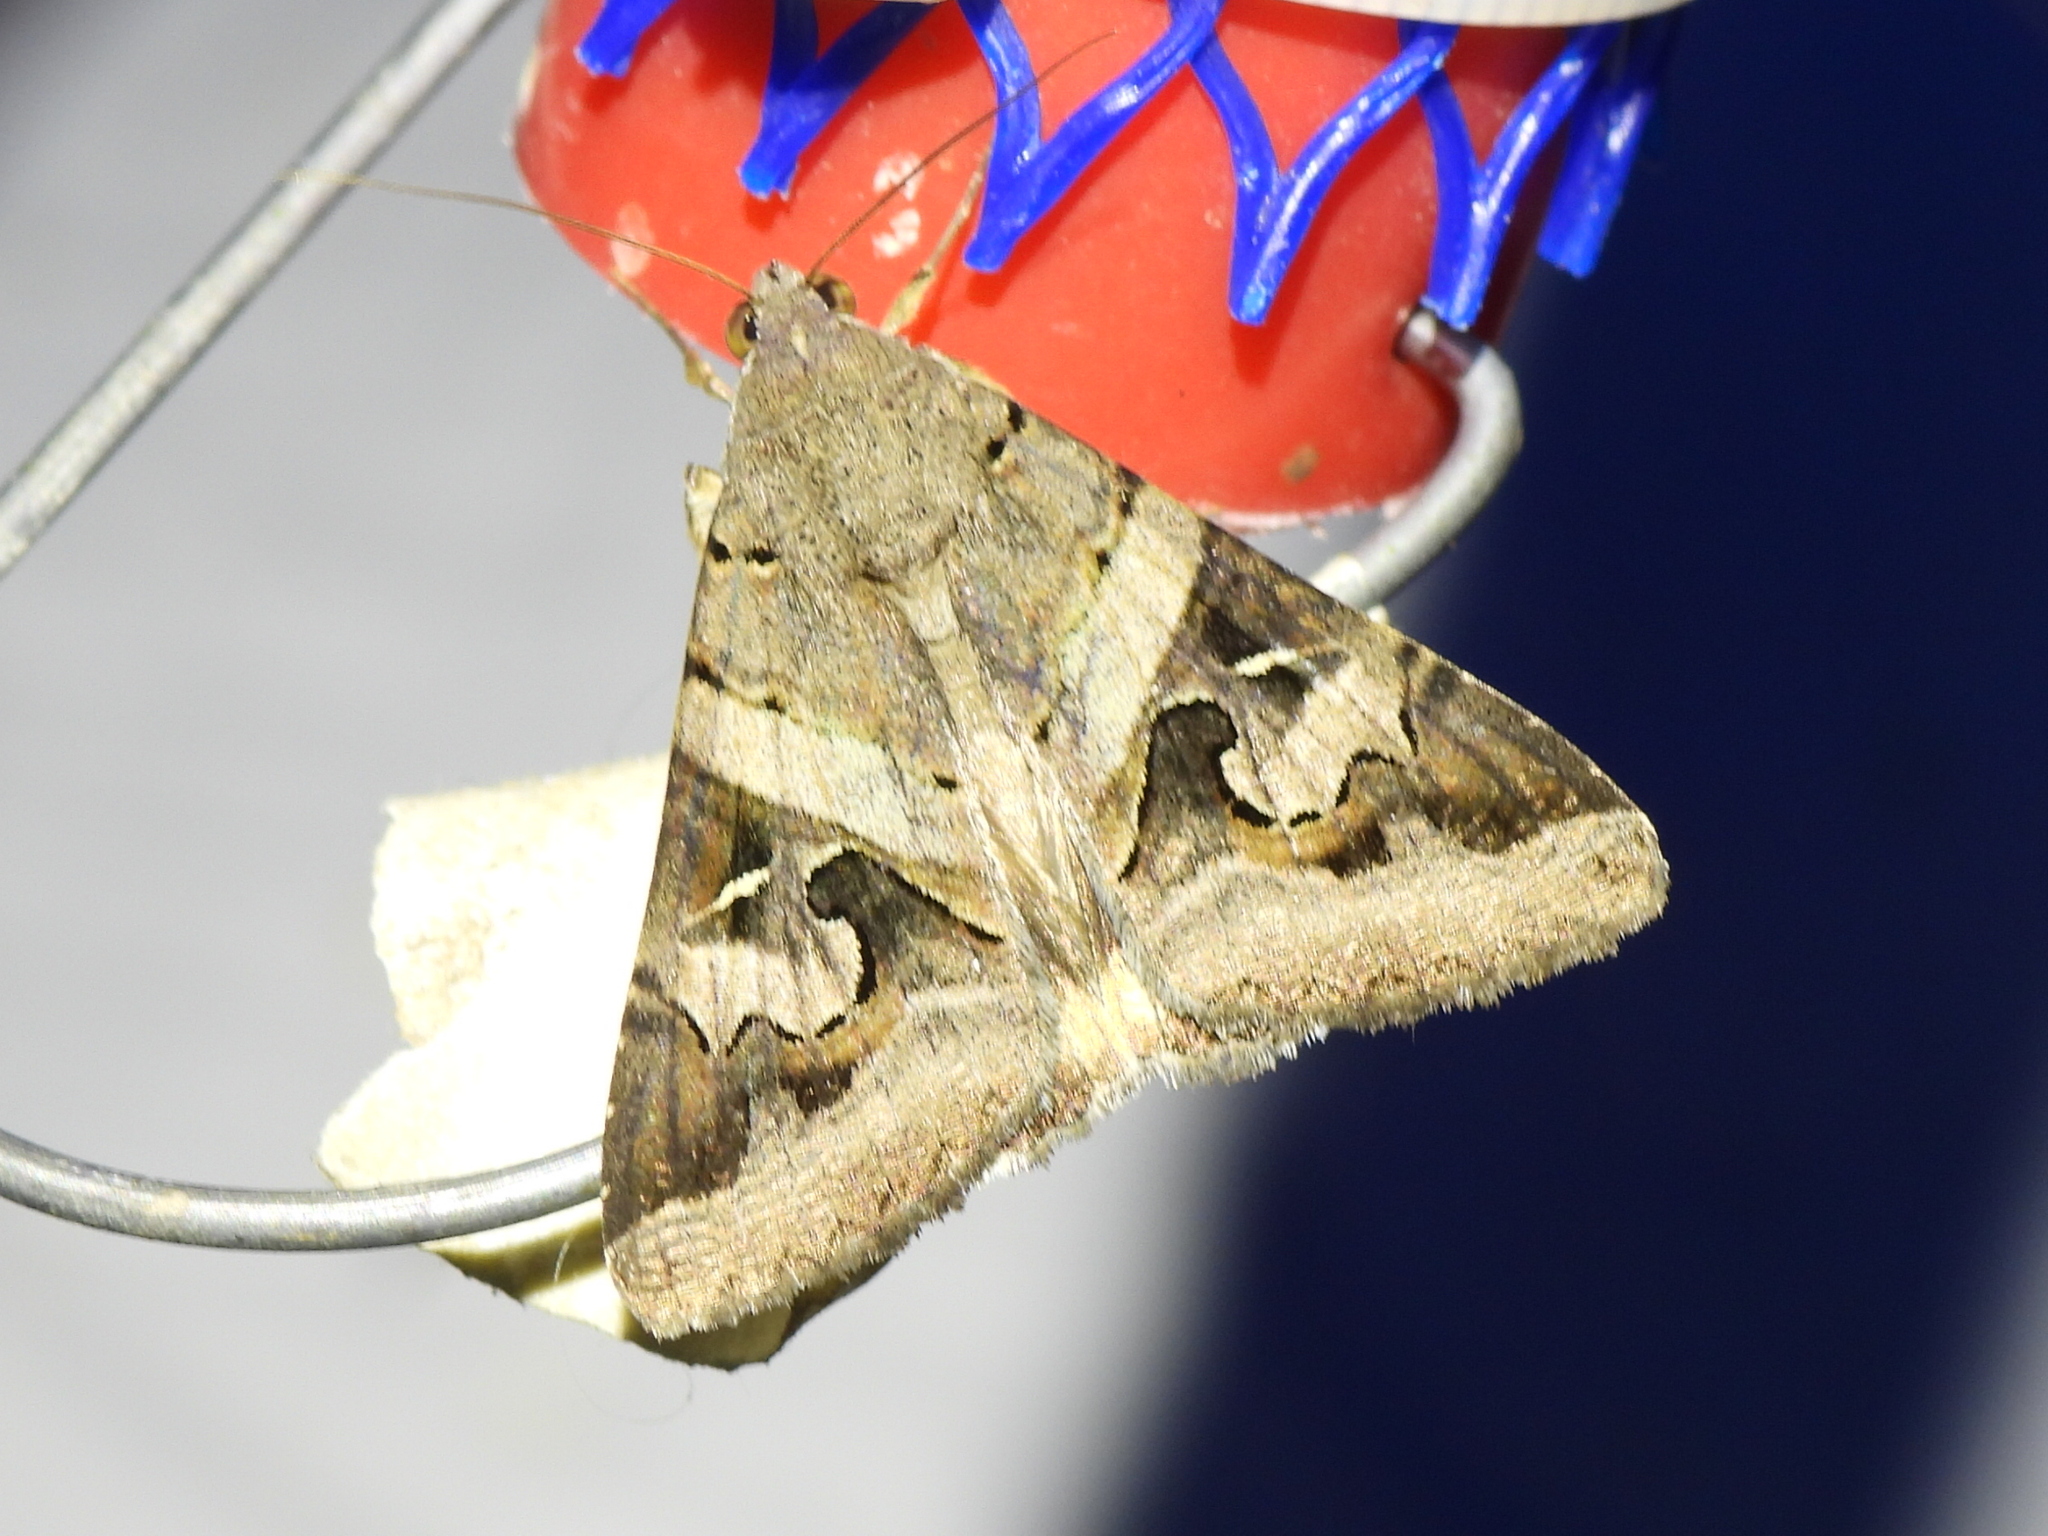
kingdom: Animalia
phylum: Arthropoda
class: Insecta
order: Lepidoptera
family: Erebidae
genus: Melipotis
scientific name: Melipotis indomita
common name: Moth
